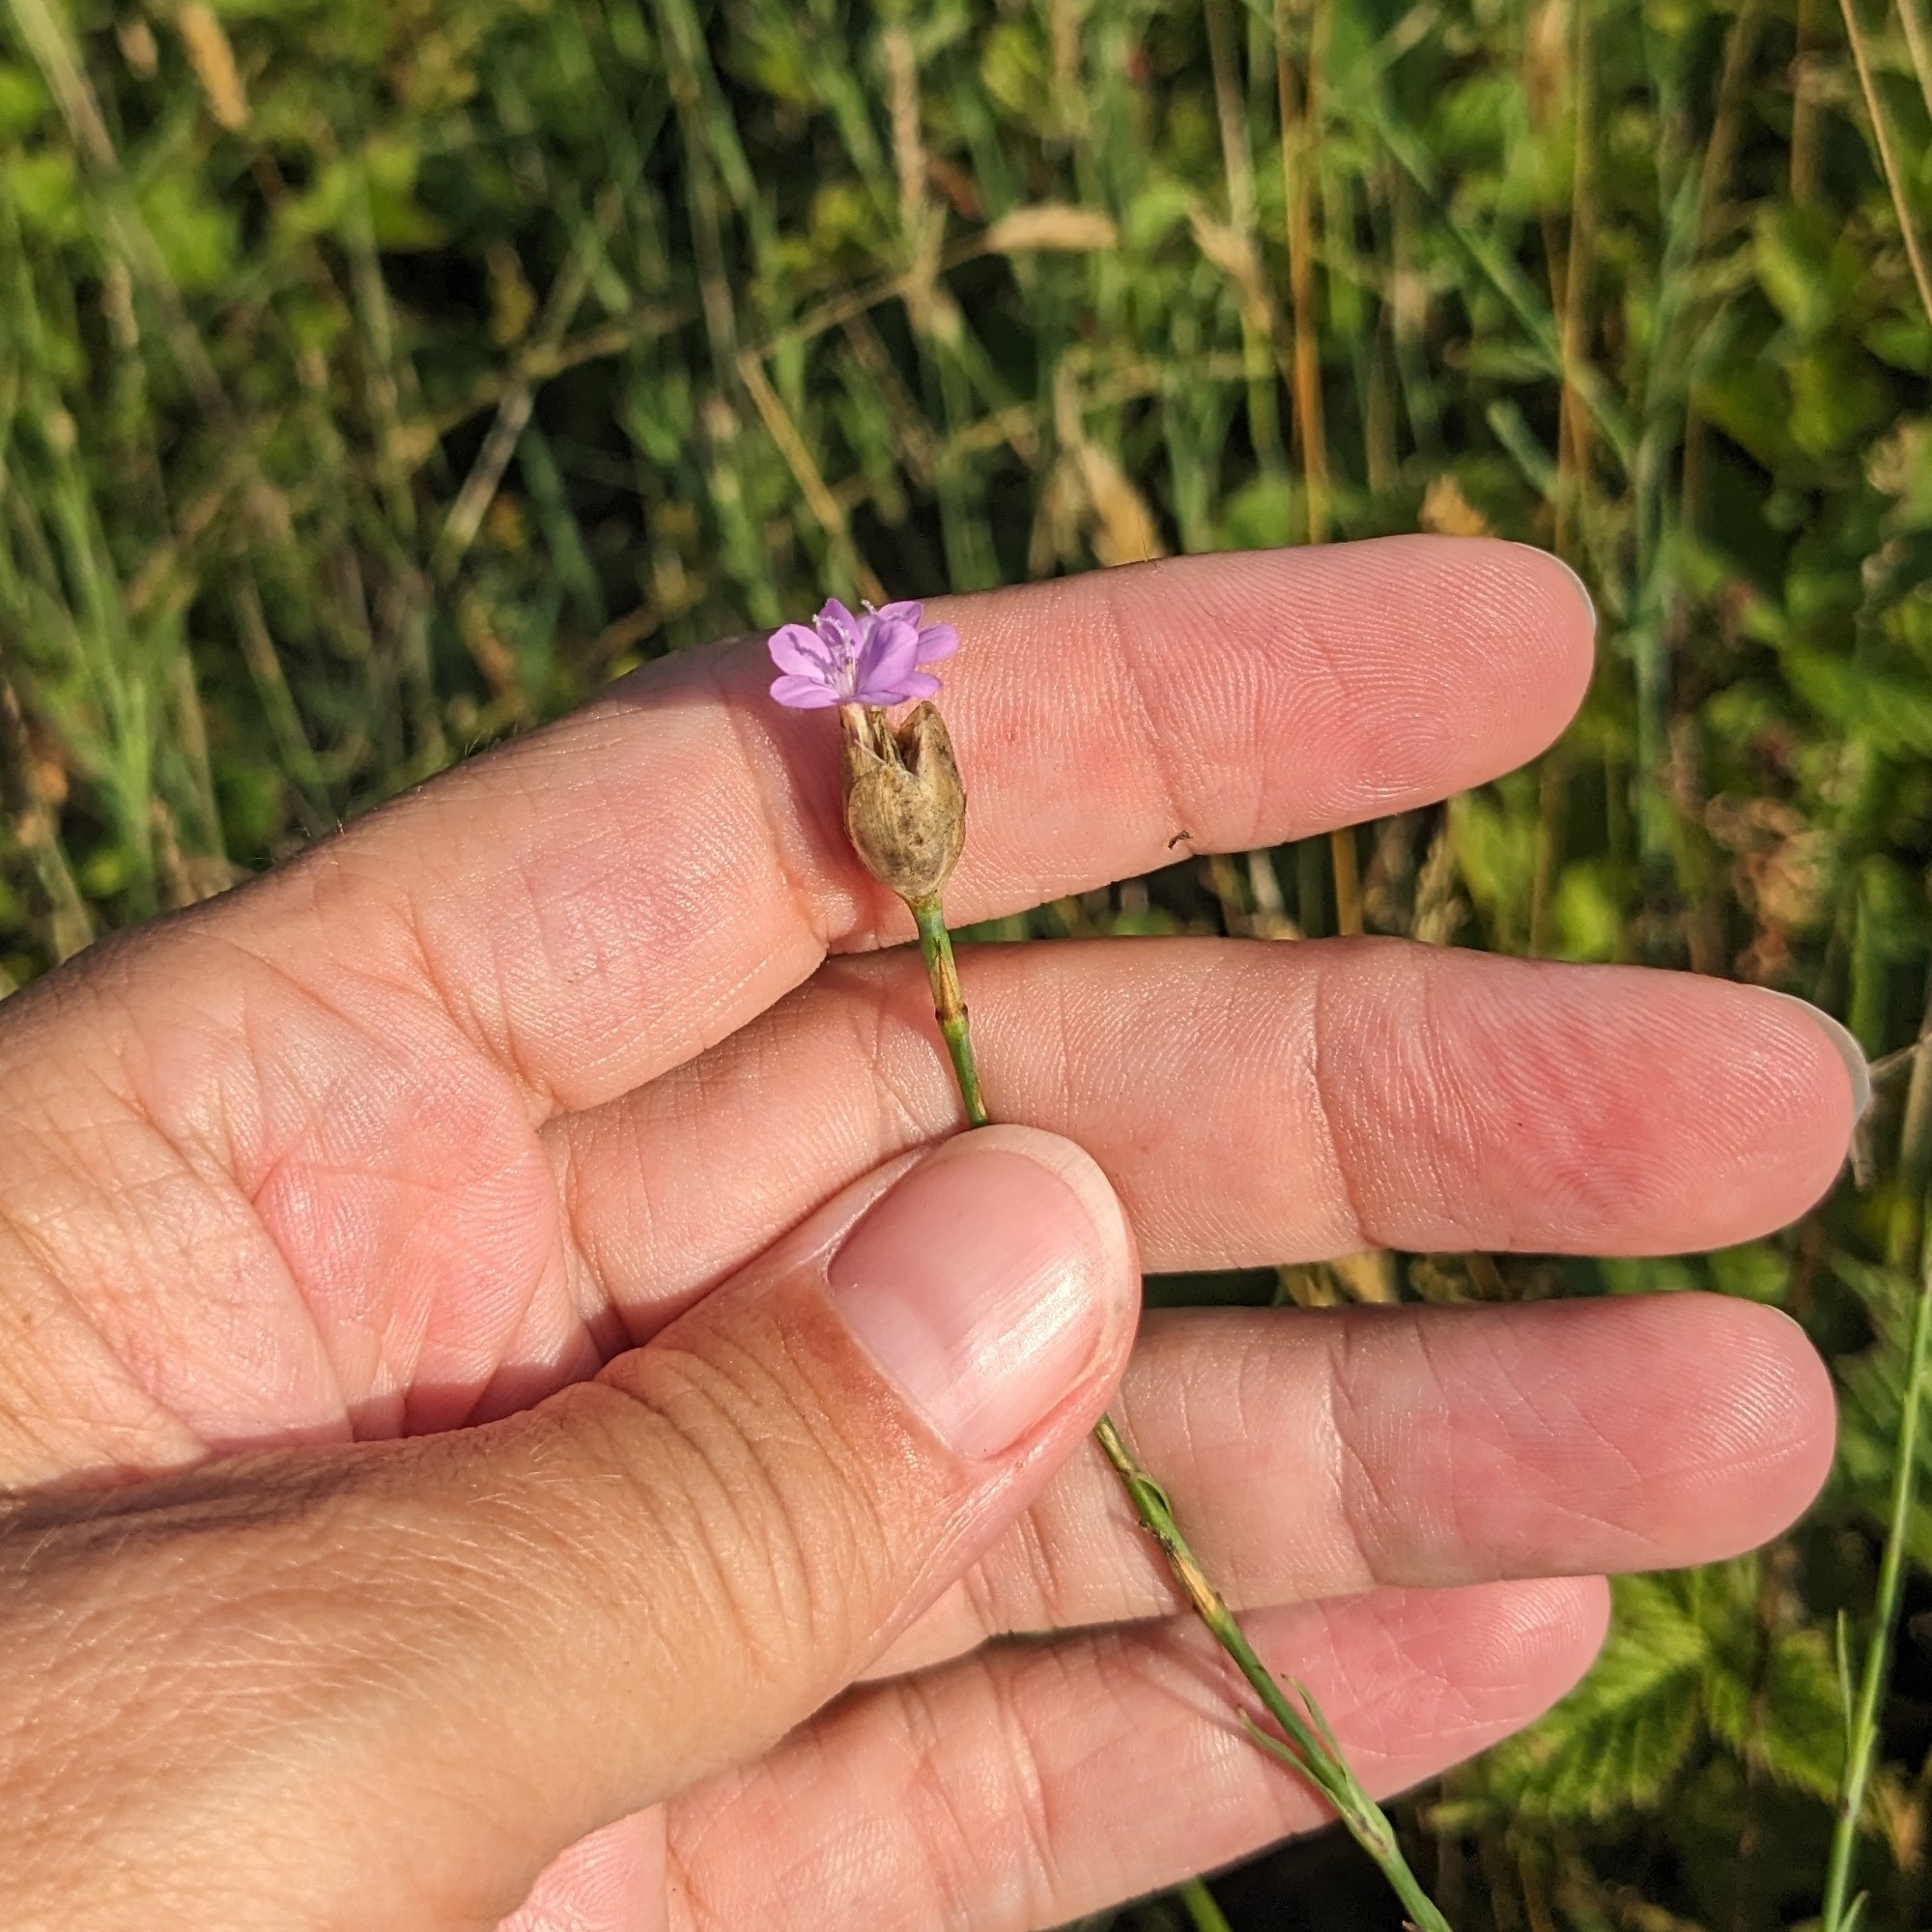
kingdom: Plantae
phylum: Tracheophyta
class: Magnoliopsida
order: Caryophyllales
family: Caryophyllaceae
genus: Petrorhagia
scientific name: Petrorhagia prolifera
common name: Proliferous pink
